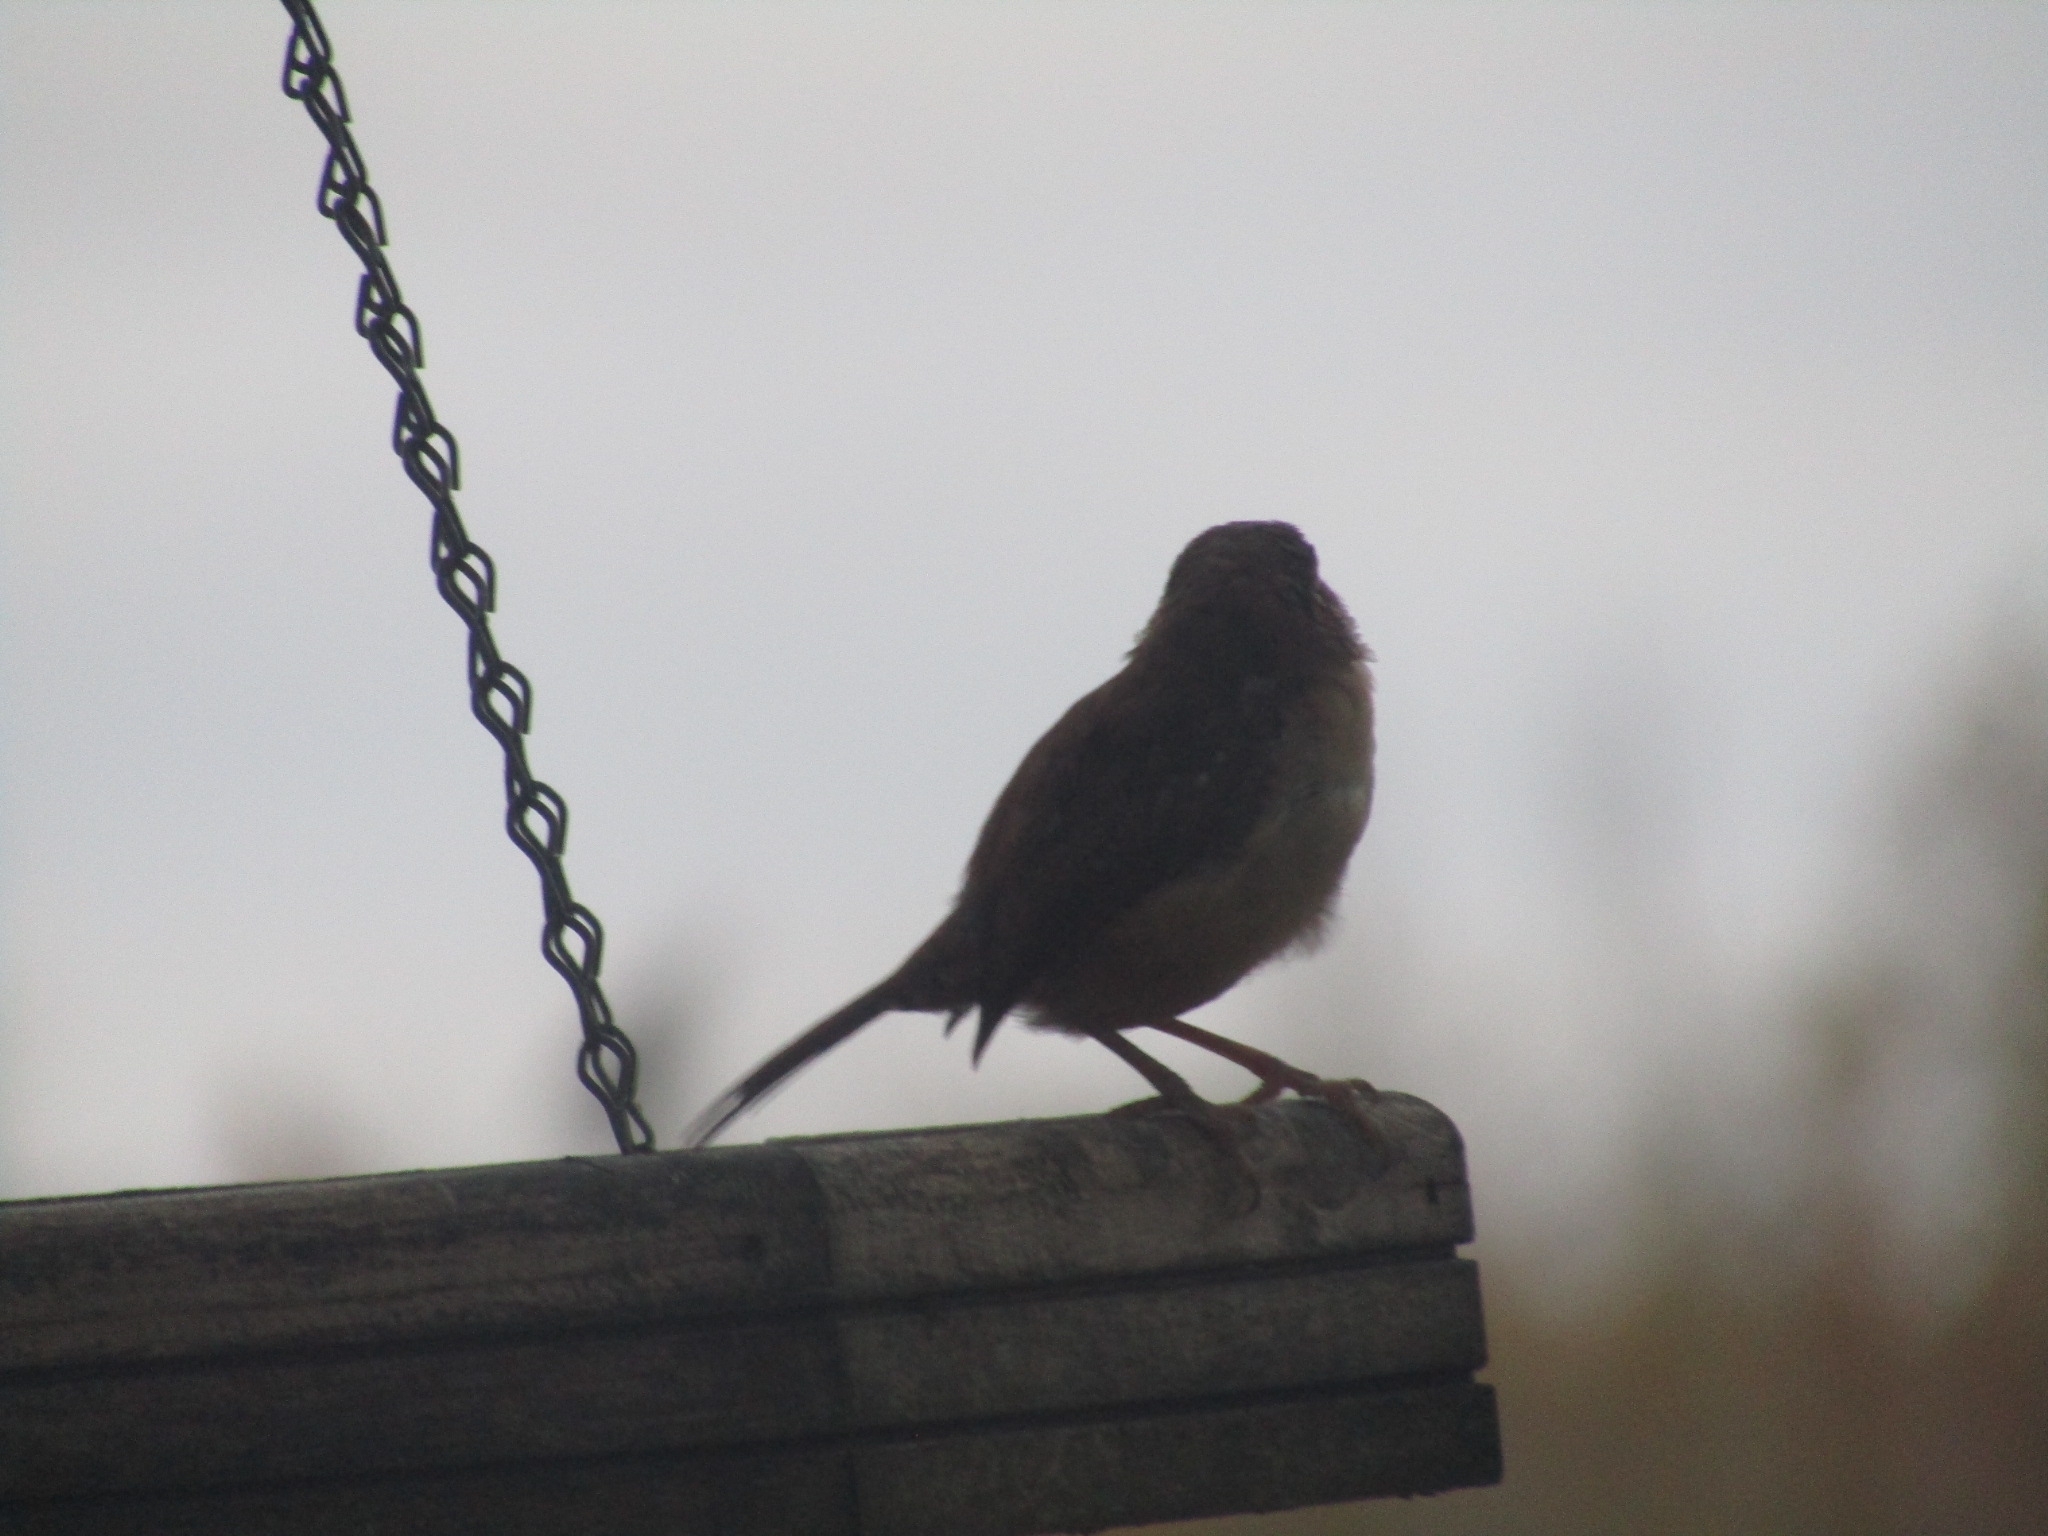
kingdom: Animalia
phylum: Chordata
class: Aves
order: Passeriformes
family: Troglodytidae
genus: Thryothorus
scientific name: Thryothorus ludovicianus
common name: Carolina wren
